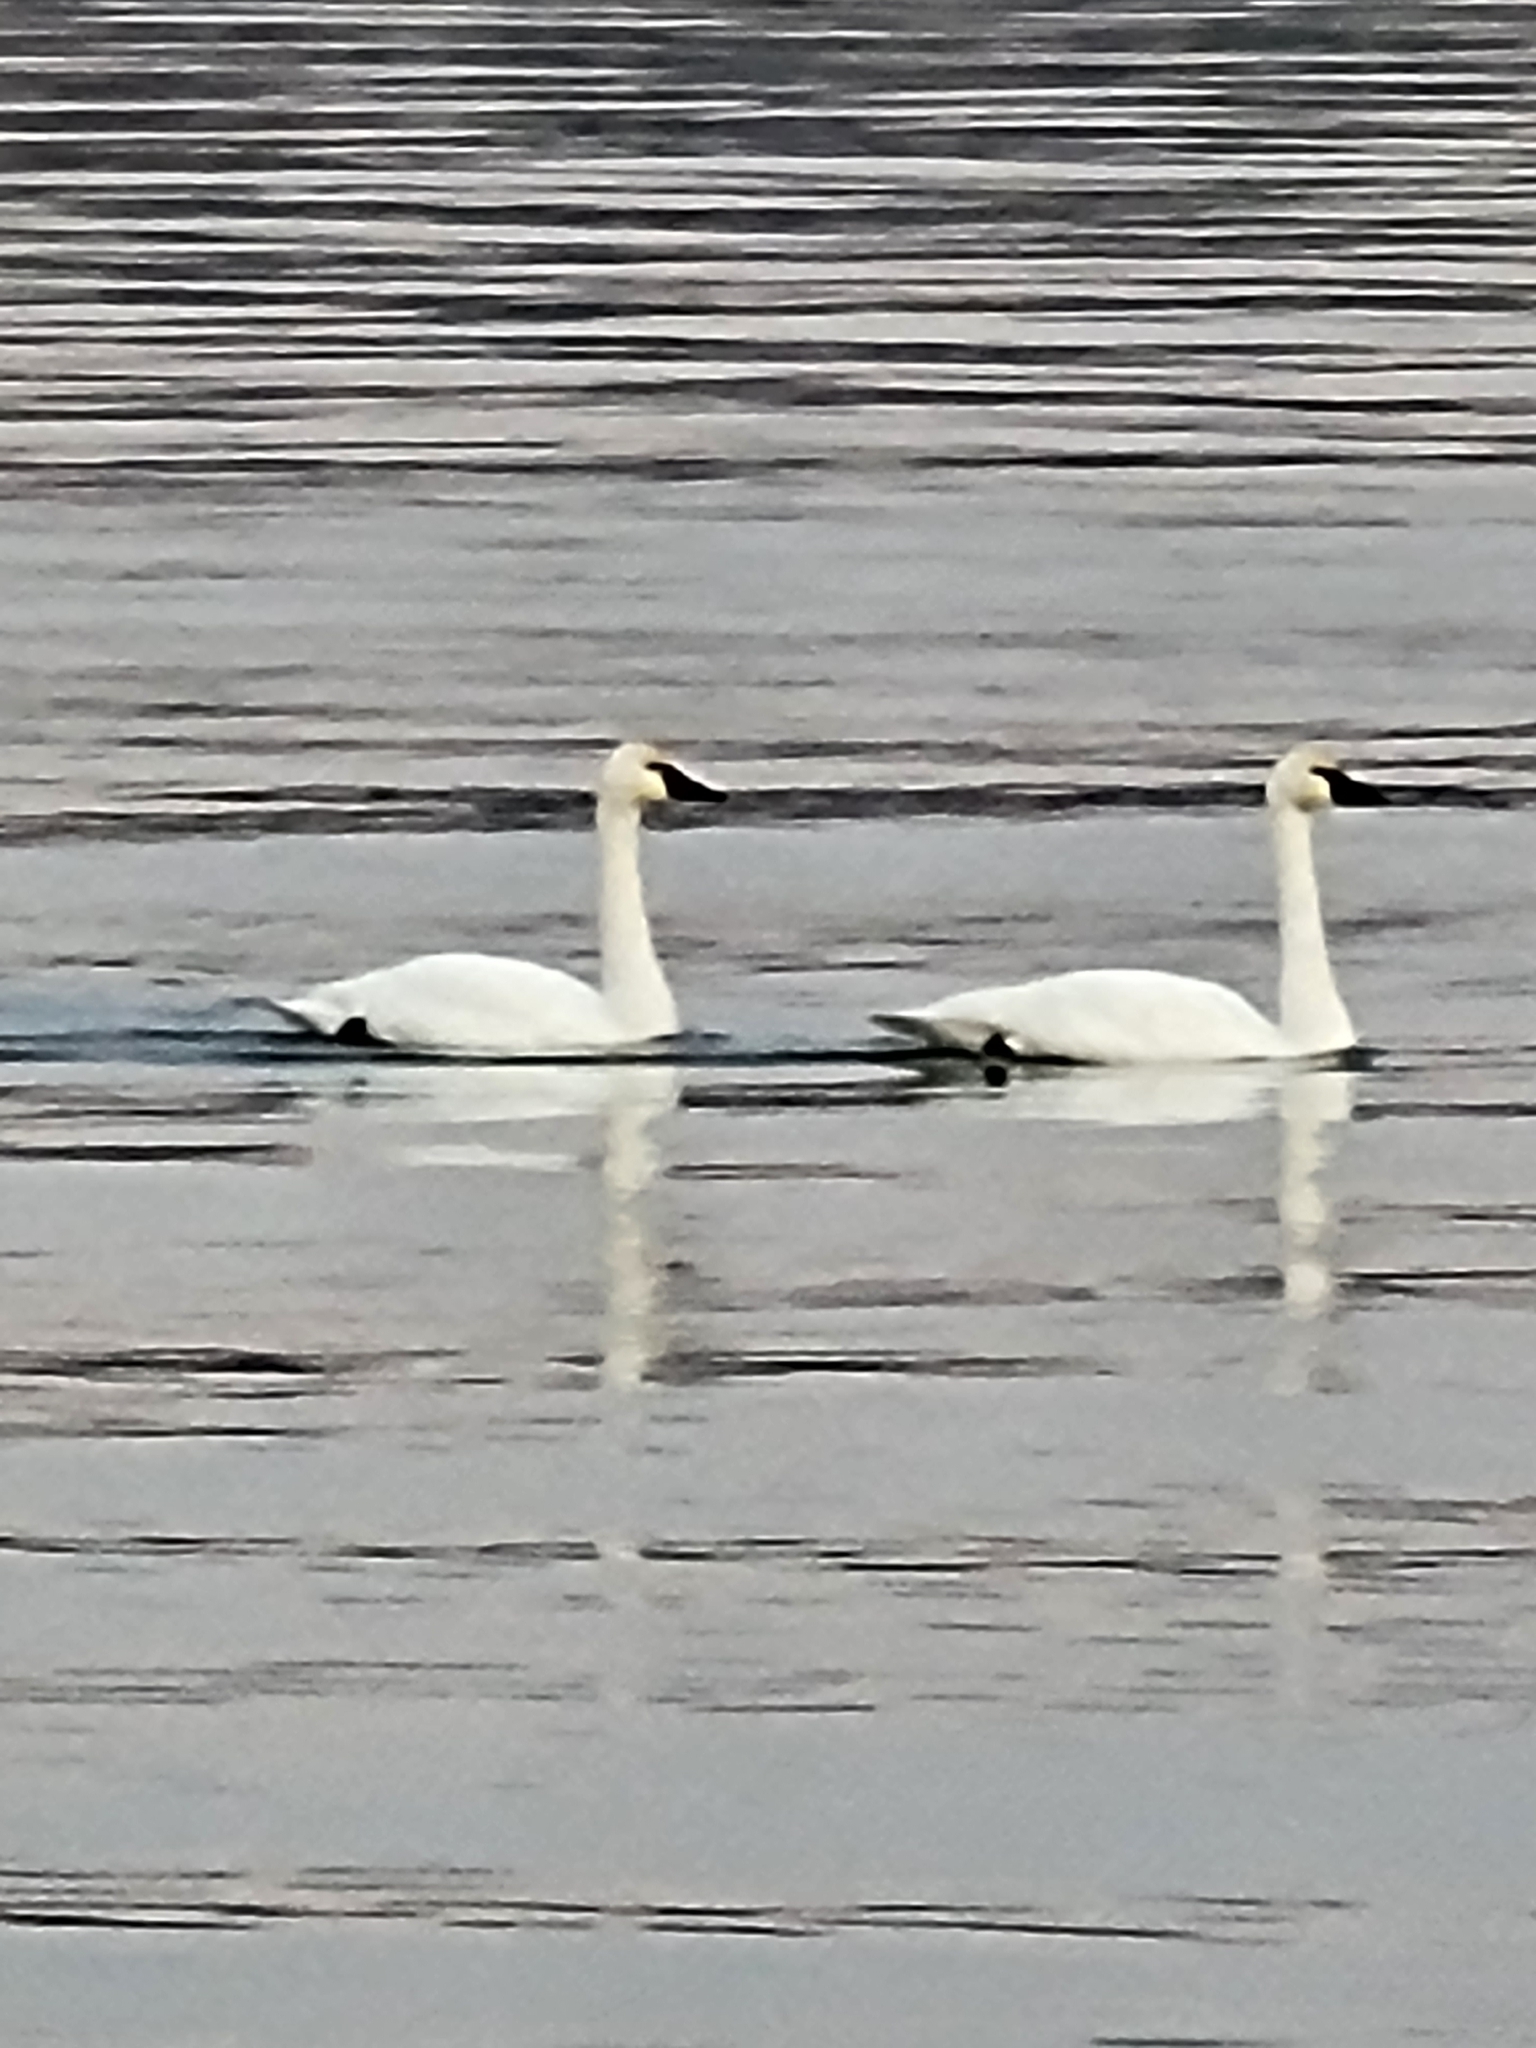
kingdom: Animalia
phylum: Chordata
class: Aves
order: Anseriformes
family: Anatidae
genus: Cygnus
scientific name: Cygnus columbianus
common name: Tundra swan
